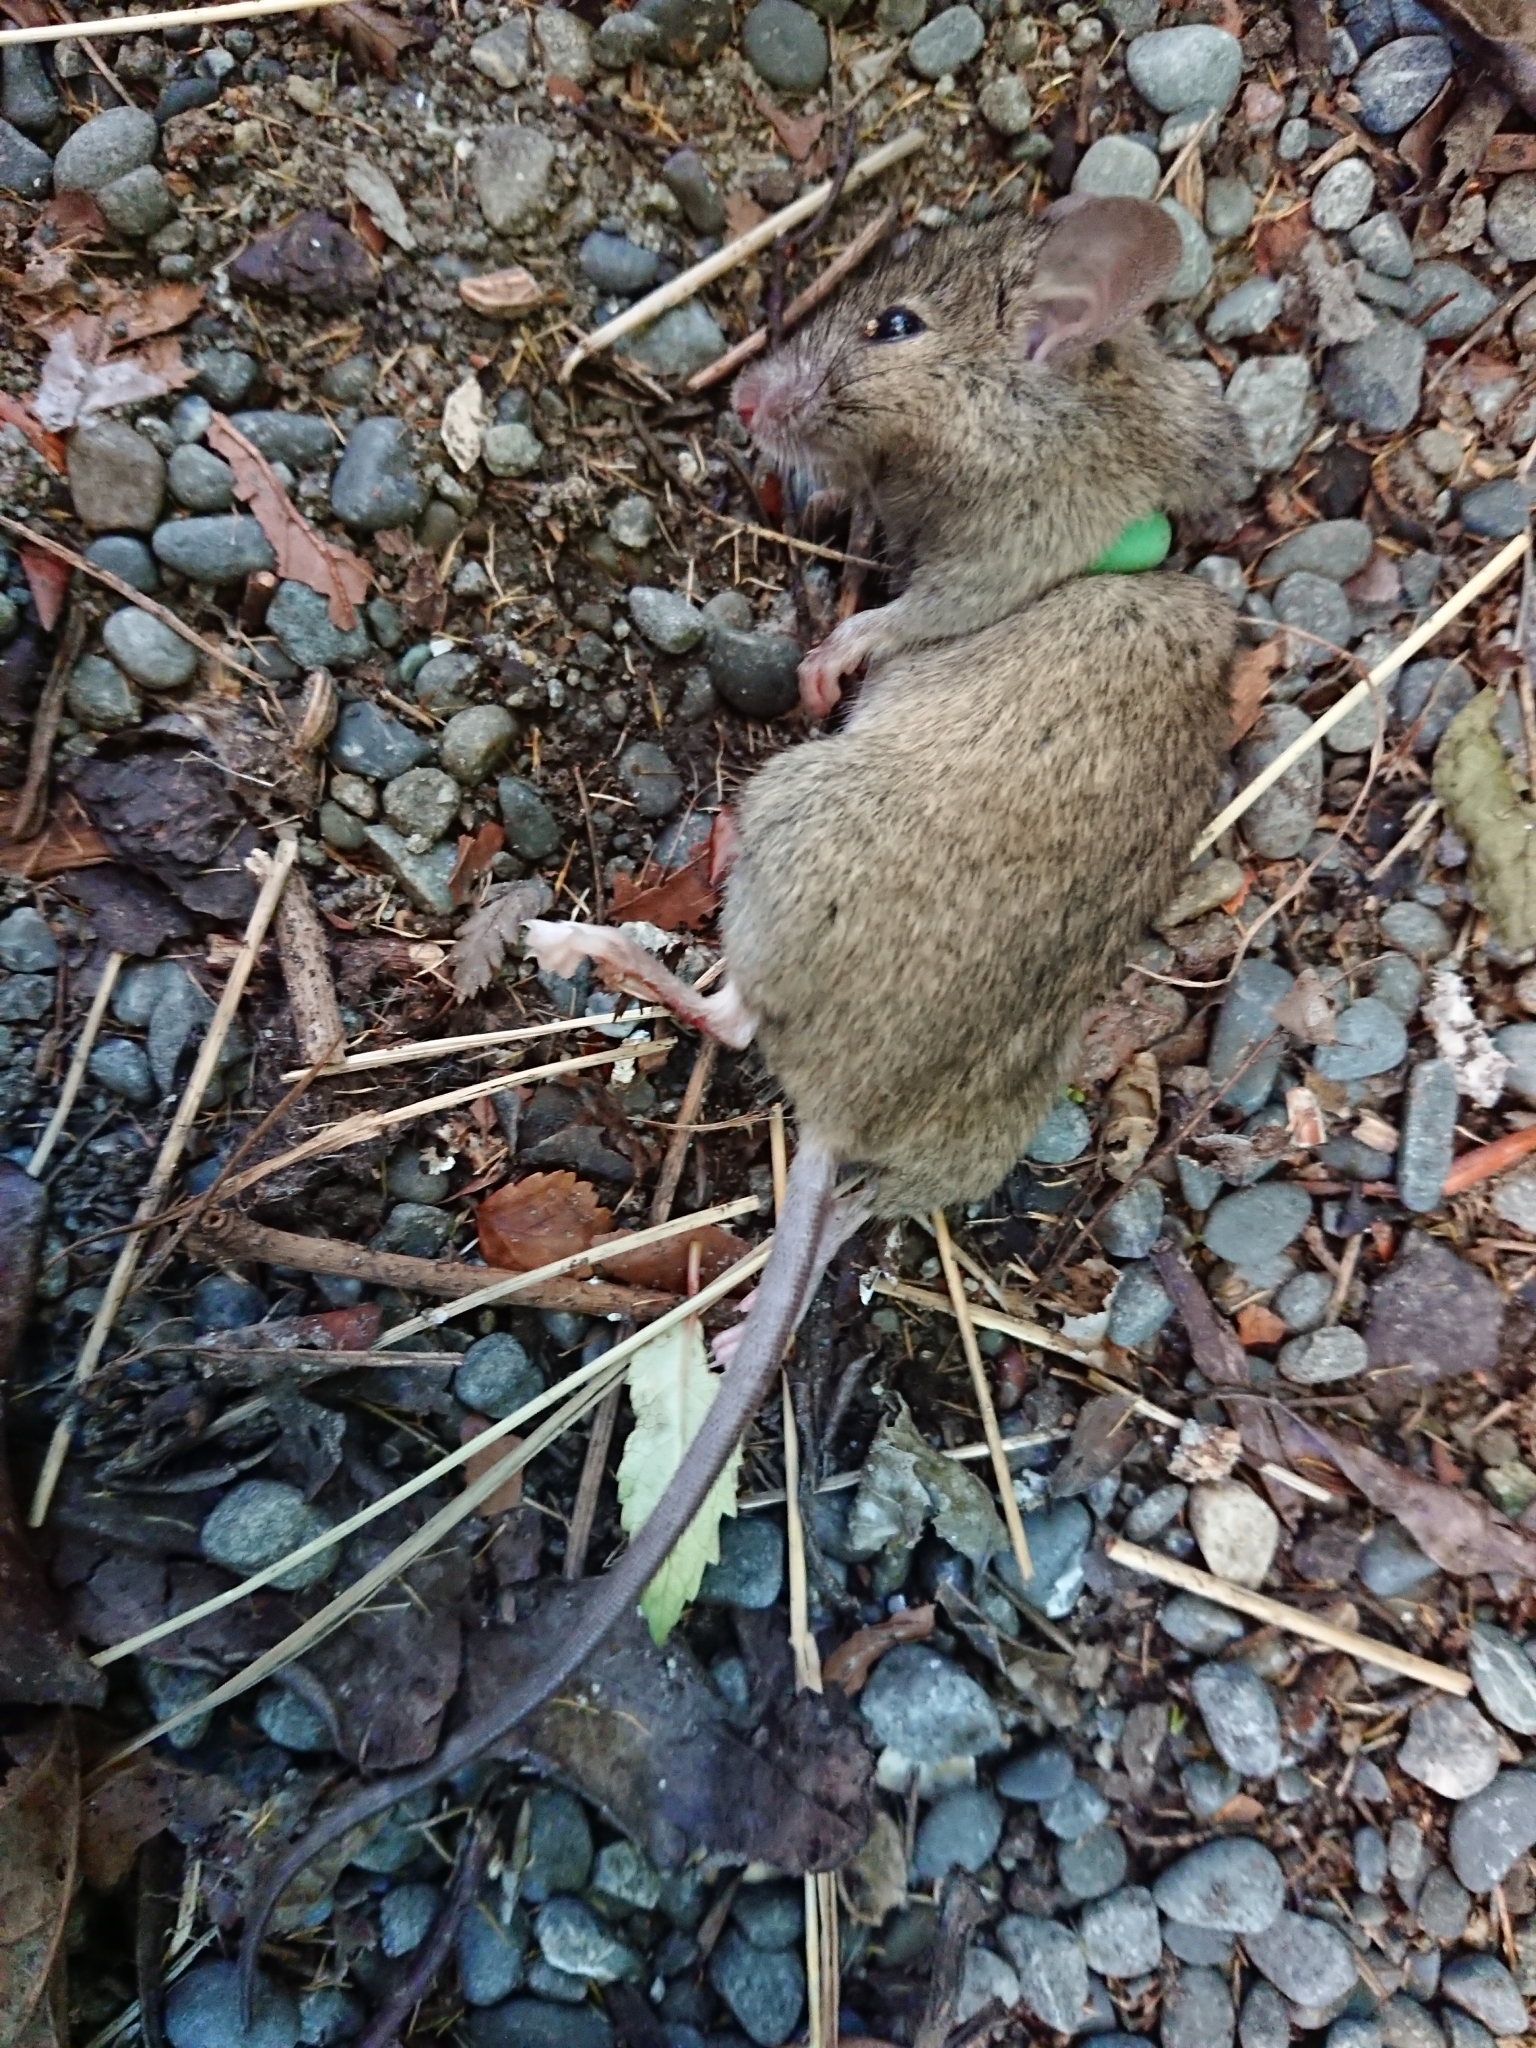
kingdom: Animalia
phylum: Chordata
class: Mammalia
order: Rodentia
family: Muridae
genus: Mus
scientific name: Mus musculus
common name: House mouse
